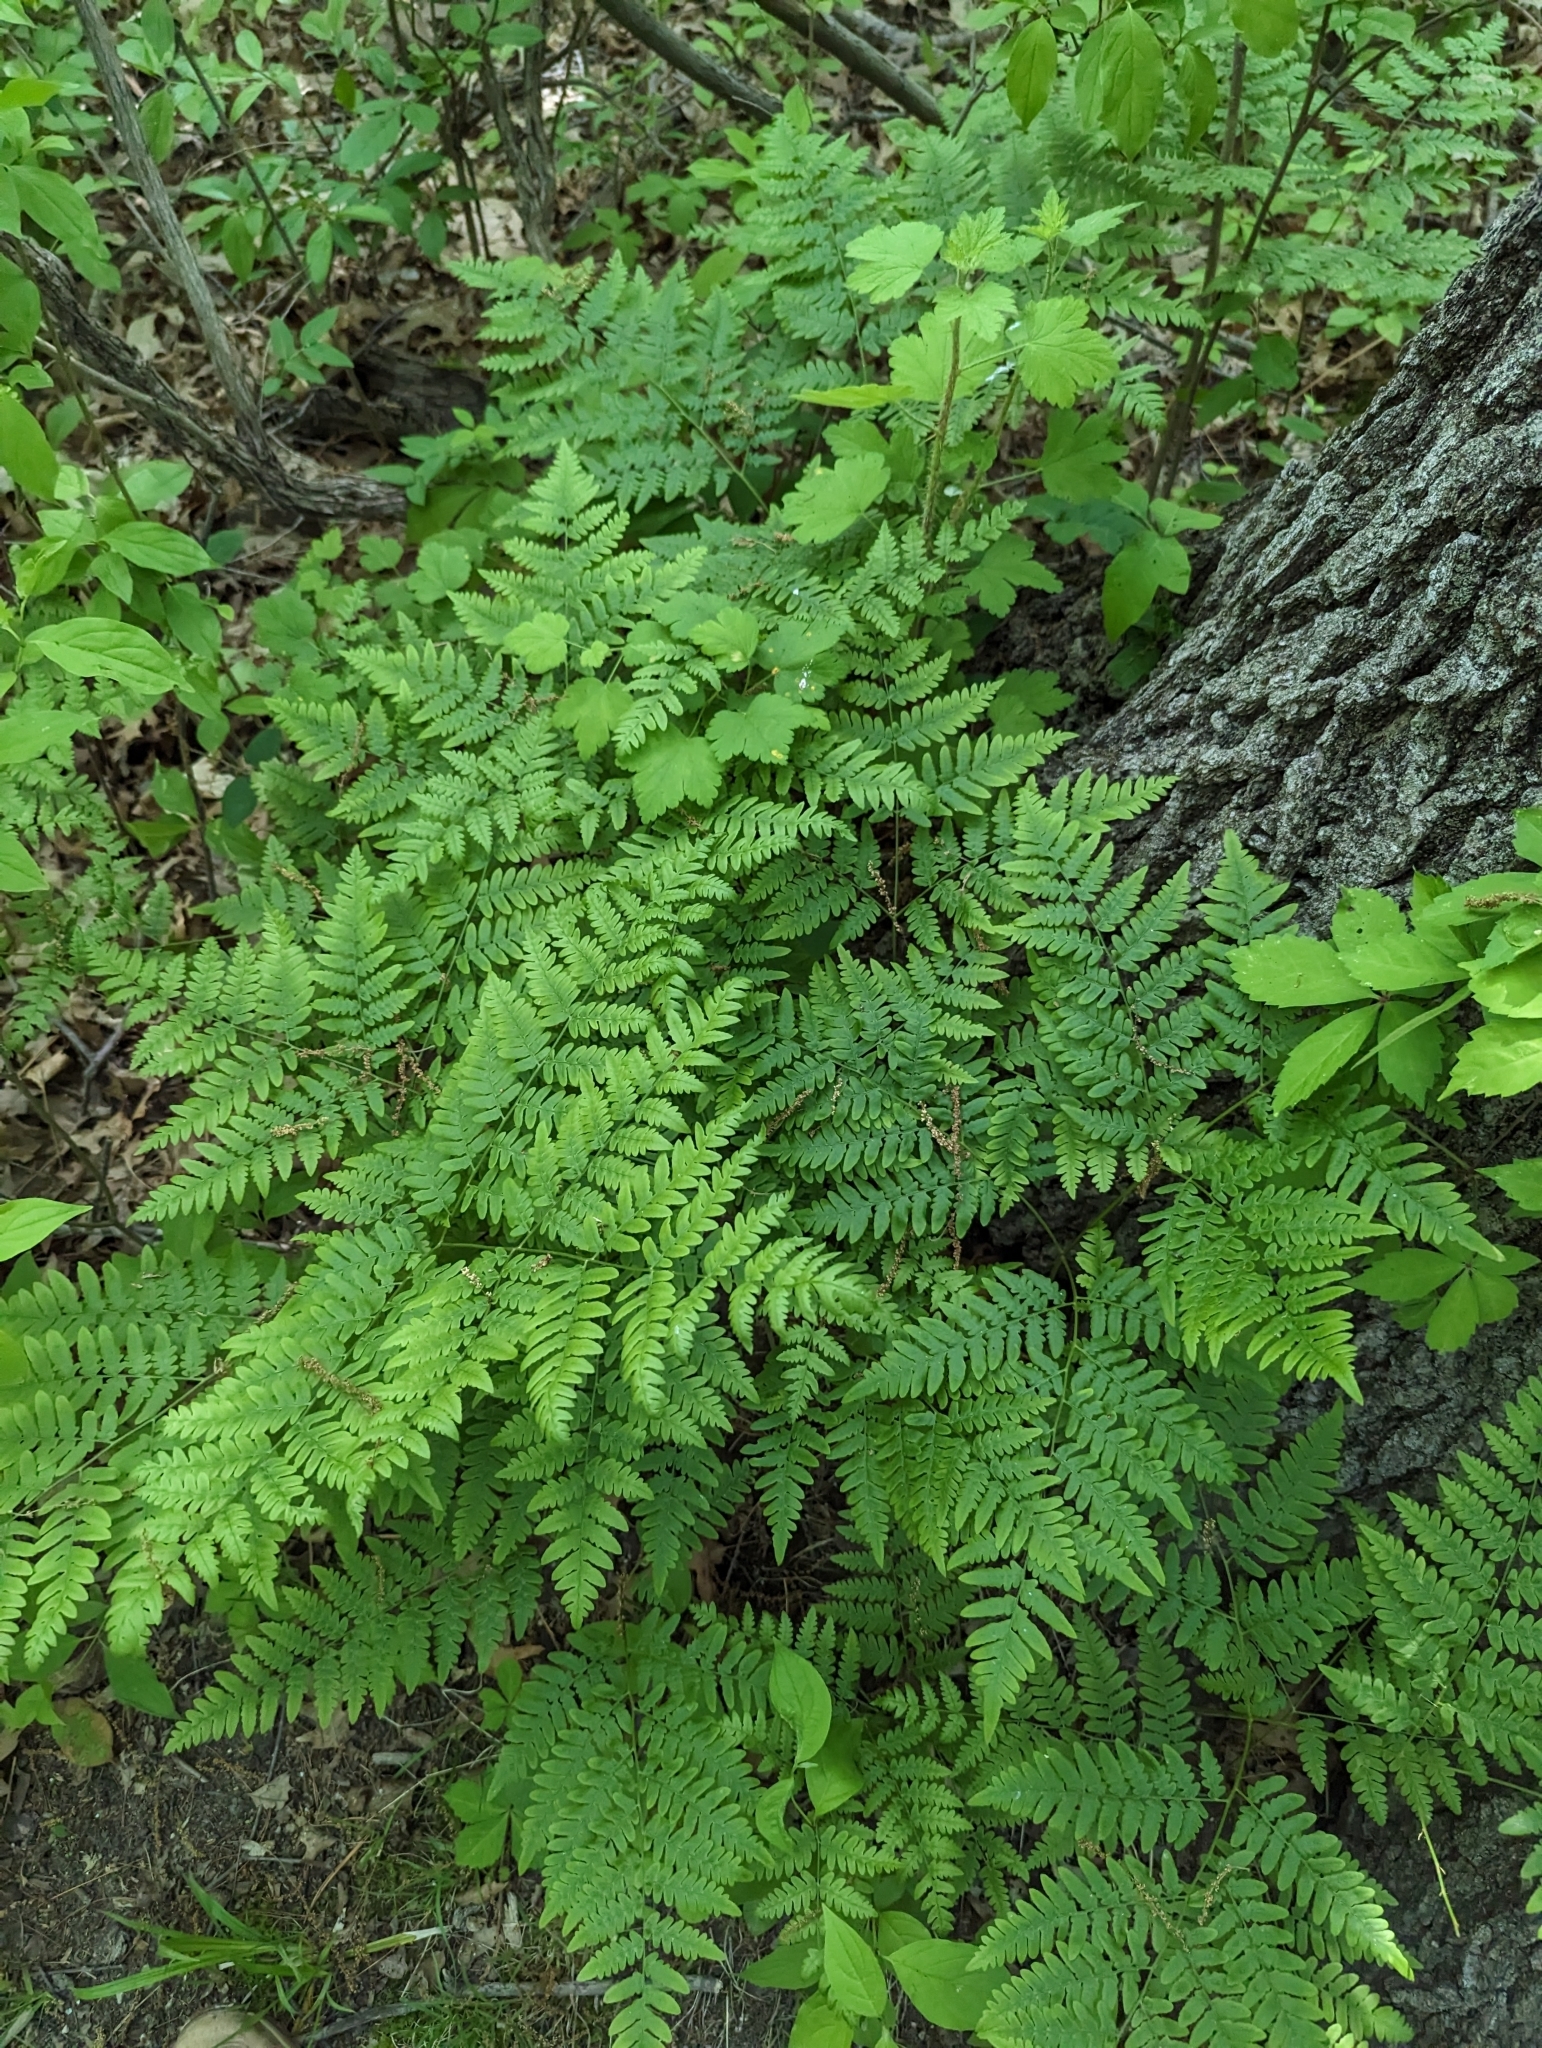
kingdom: Plantae
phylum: Tracheophyta
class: Polypodiopsida
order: Polypodiales
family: Dennstaedtiaceae
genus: Pteridium
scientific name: Pteridium aquilinum
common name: Bracken
